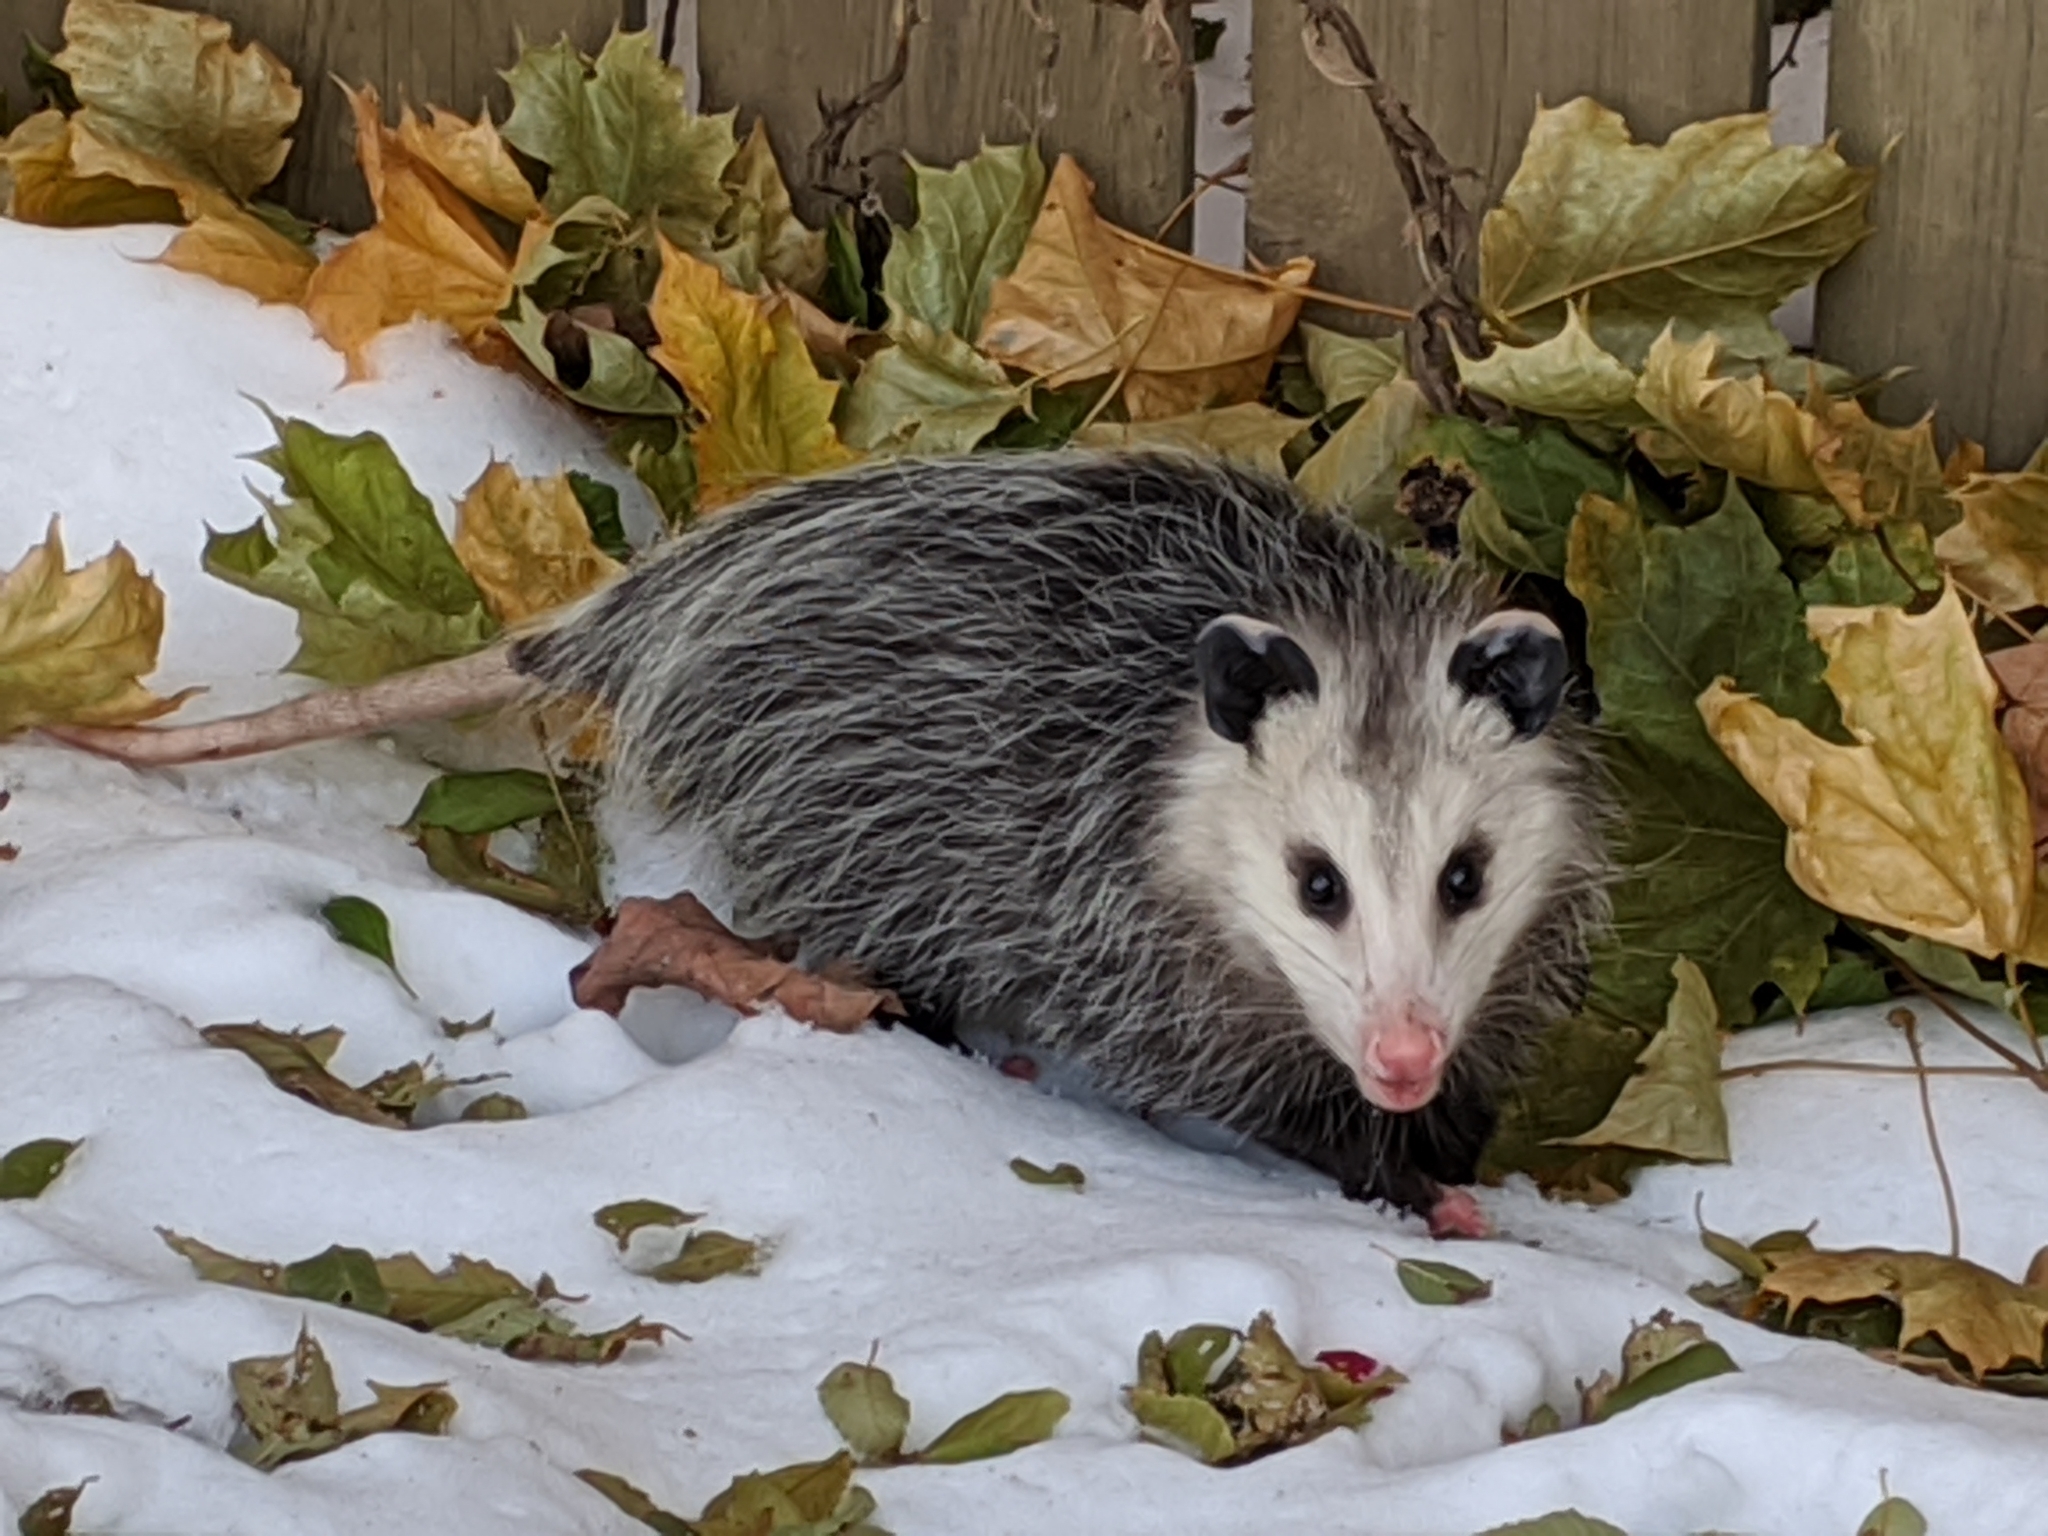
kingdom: Animalia
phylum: Chordata
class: Mammalia
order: Didelphimorphia
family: Didelphidae
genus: Didelphis
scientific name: Didelphis virginiana
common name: Virginia opossum
